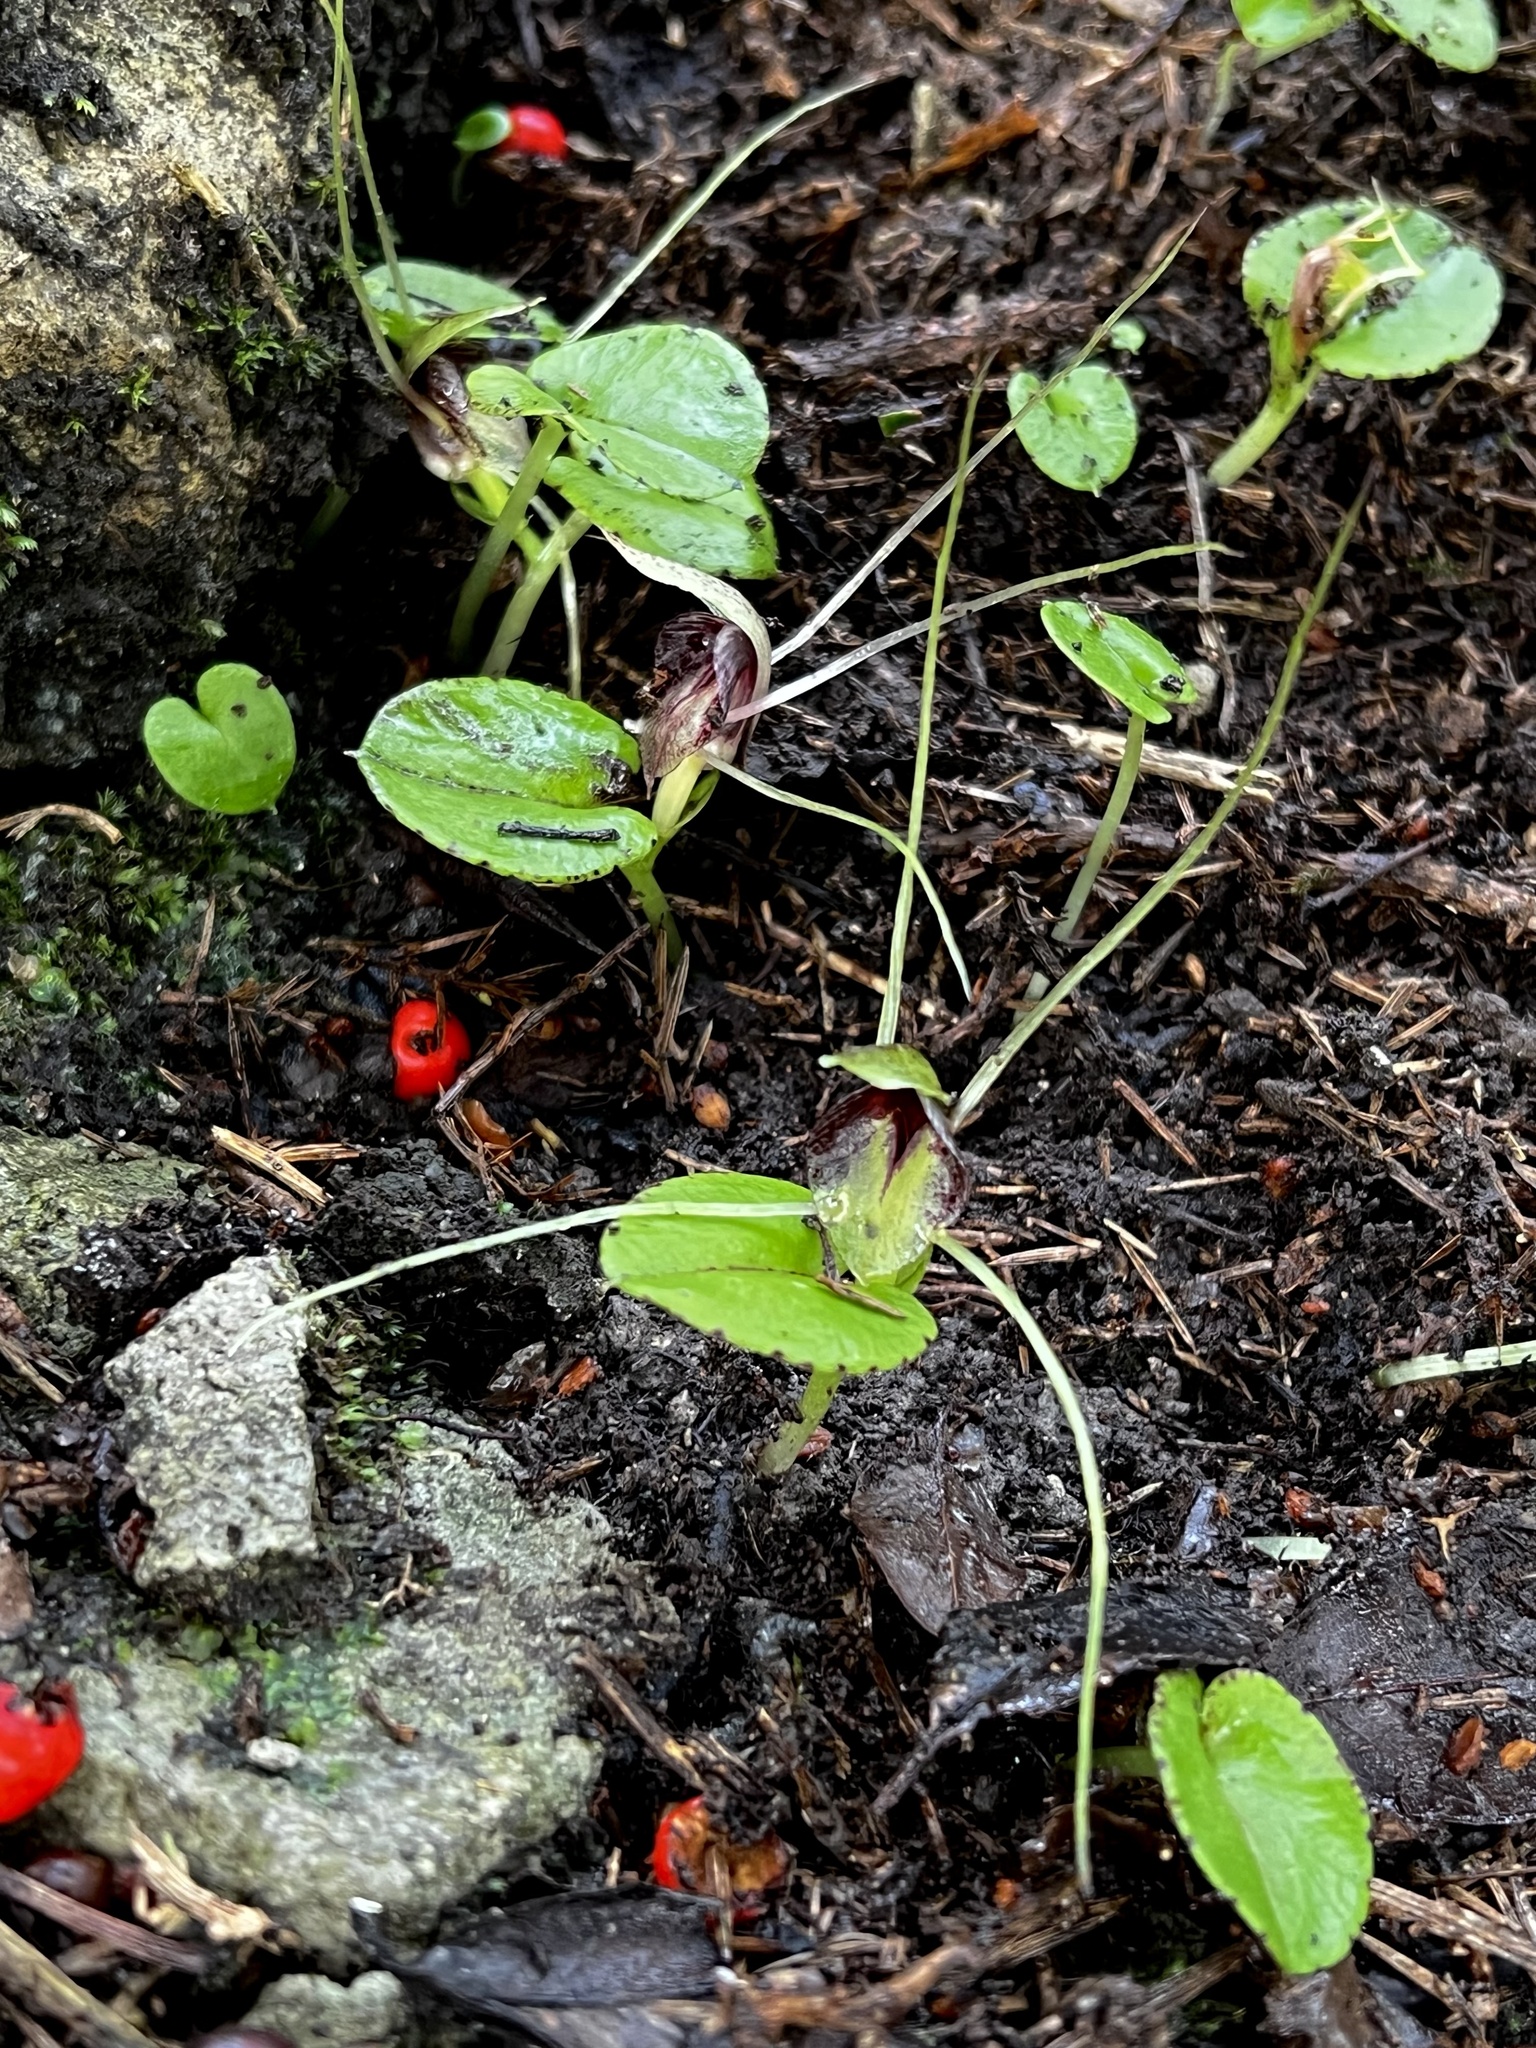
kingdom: Plantae
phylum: Tracheophyta
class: Liliopsida
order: Asparagales
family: Orchidaceae
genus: Corybas
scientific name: Corybas hatchii
